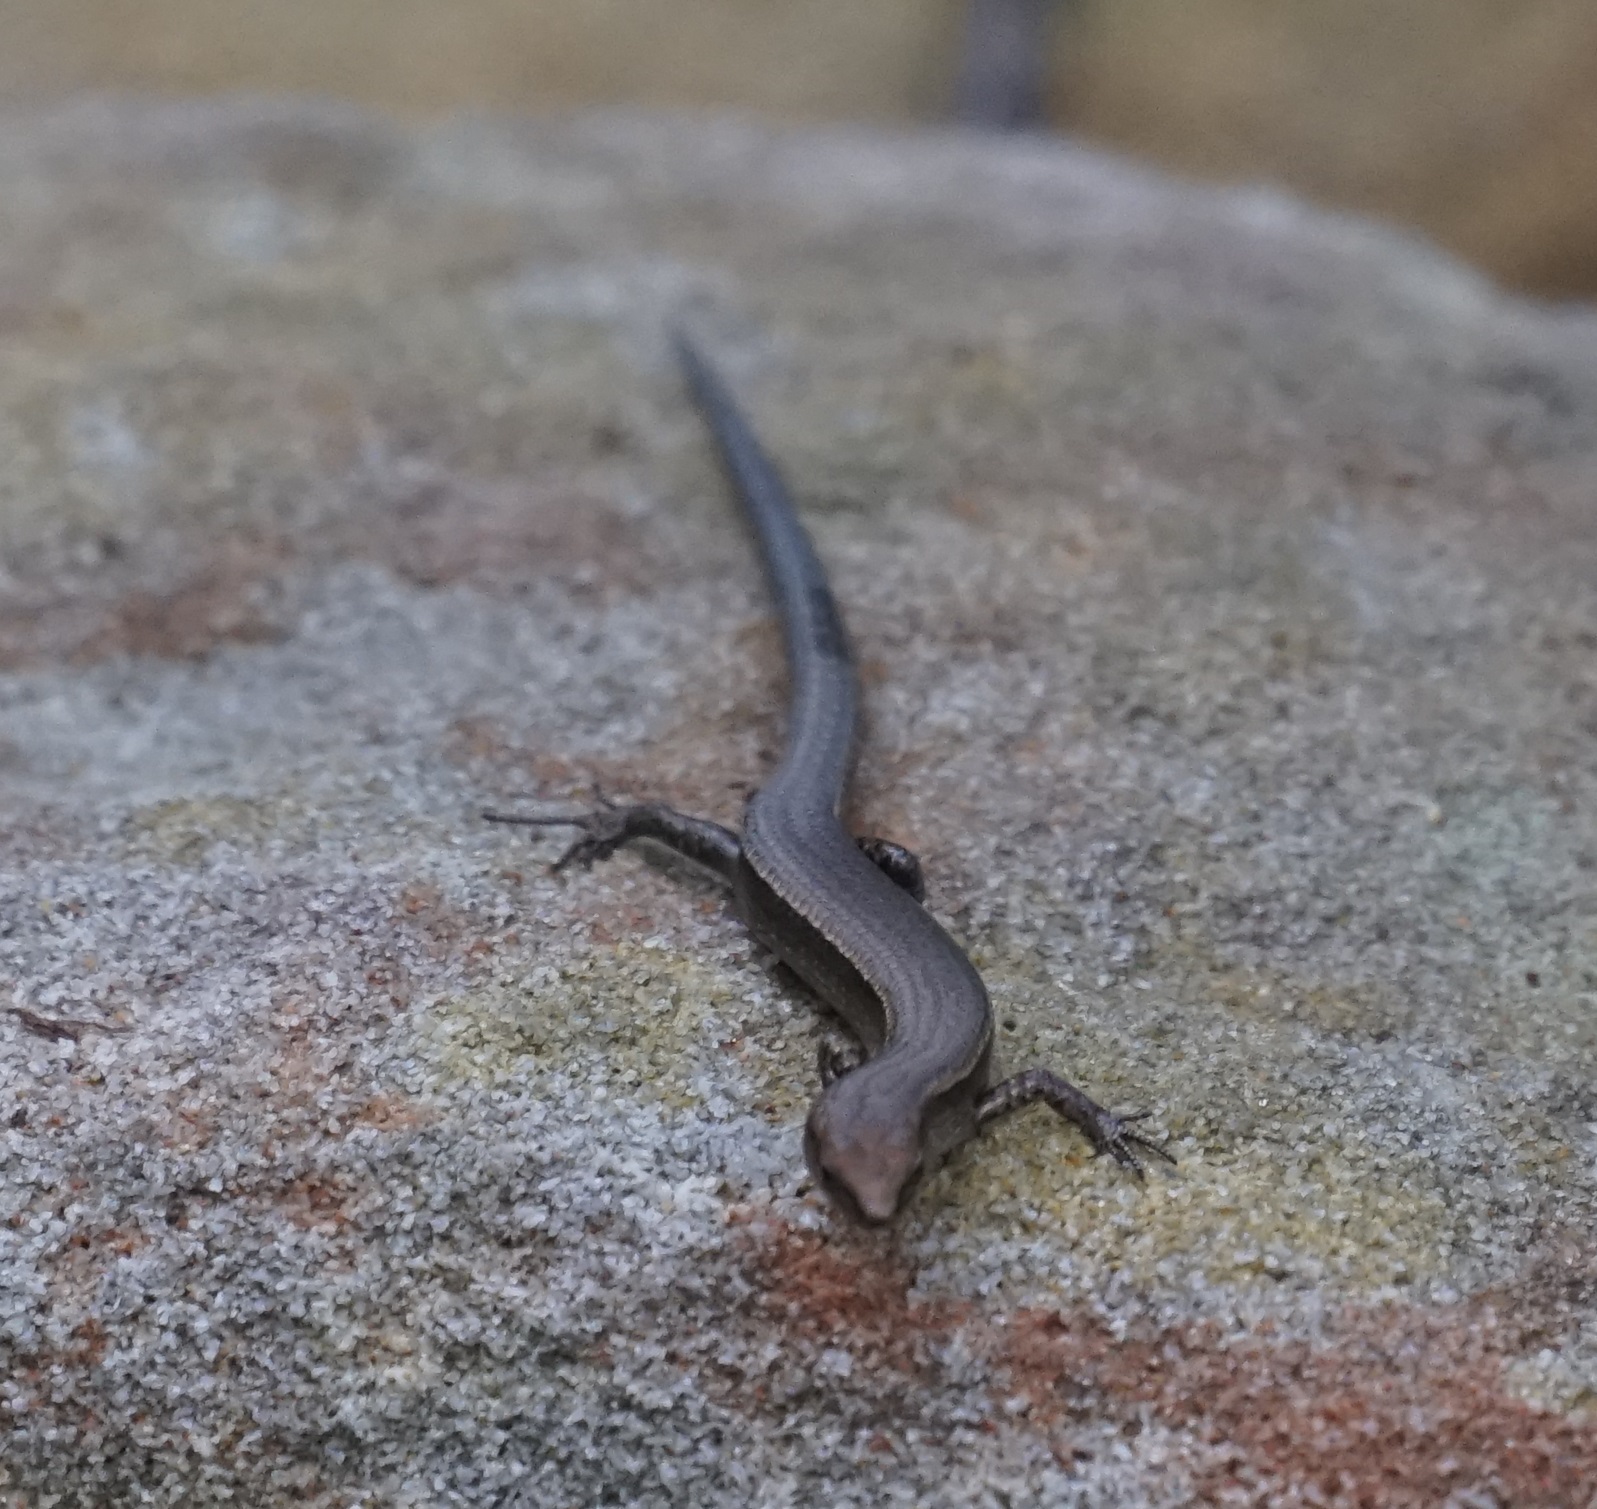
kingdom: Animalia
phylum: Chordata
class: Squamata
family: Scincidae
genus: Lampropholis
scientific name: Lampropholis delicata
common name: Plague skink
